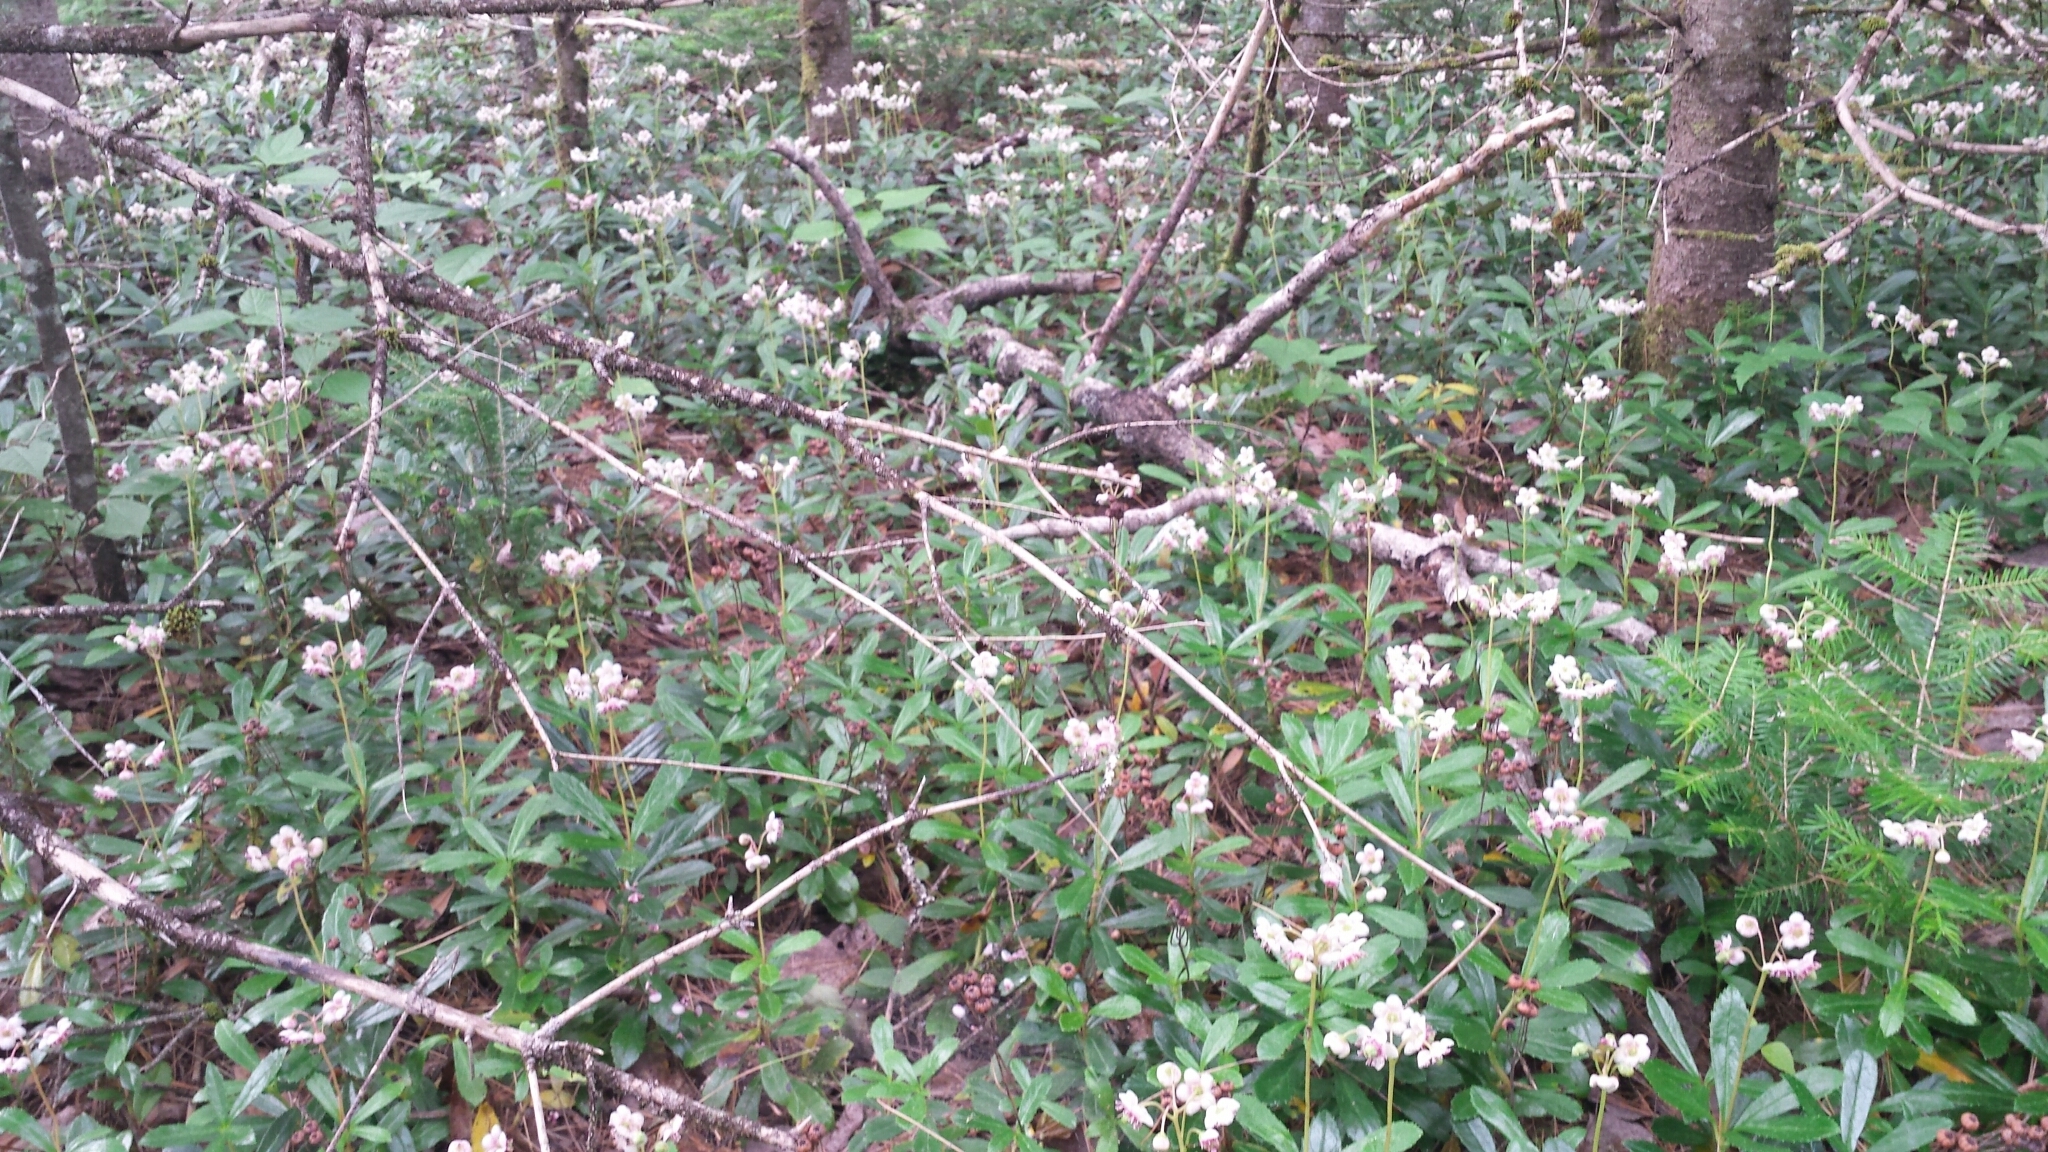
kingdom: Plantae
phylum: Tracheophyta
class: Magnoliopsida
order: Ericales
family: Ericaceae
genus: Chimaphila
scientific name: Chimaphila umbellata
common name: Pipsissewa
